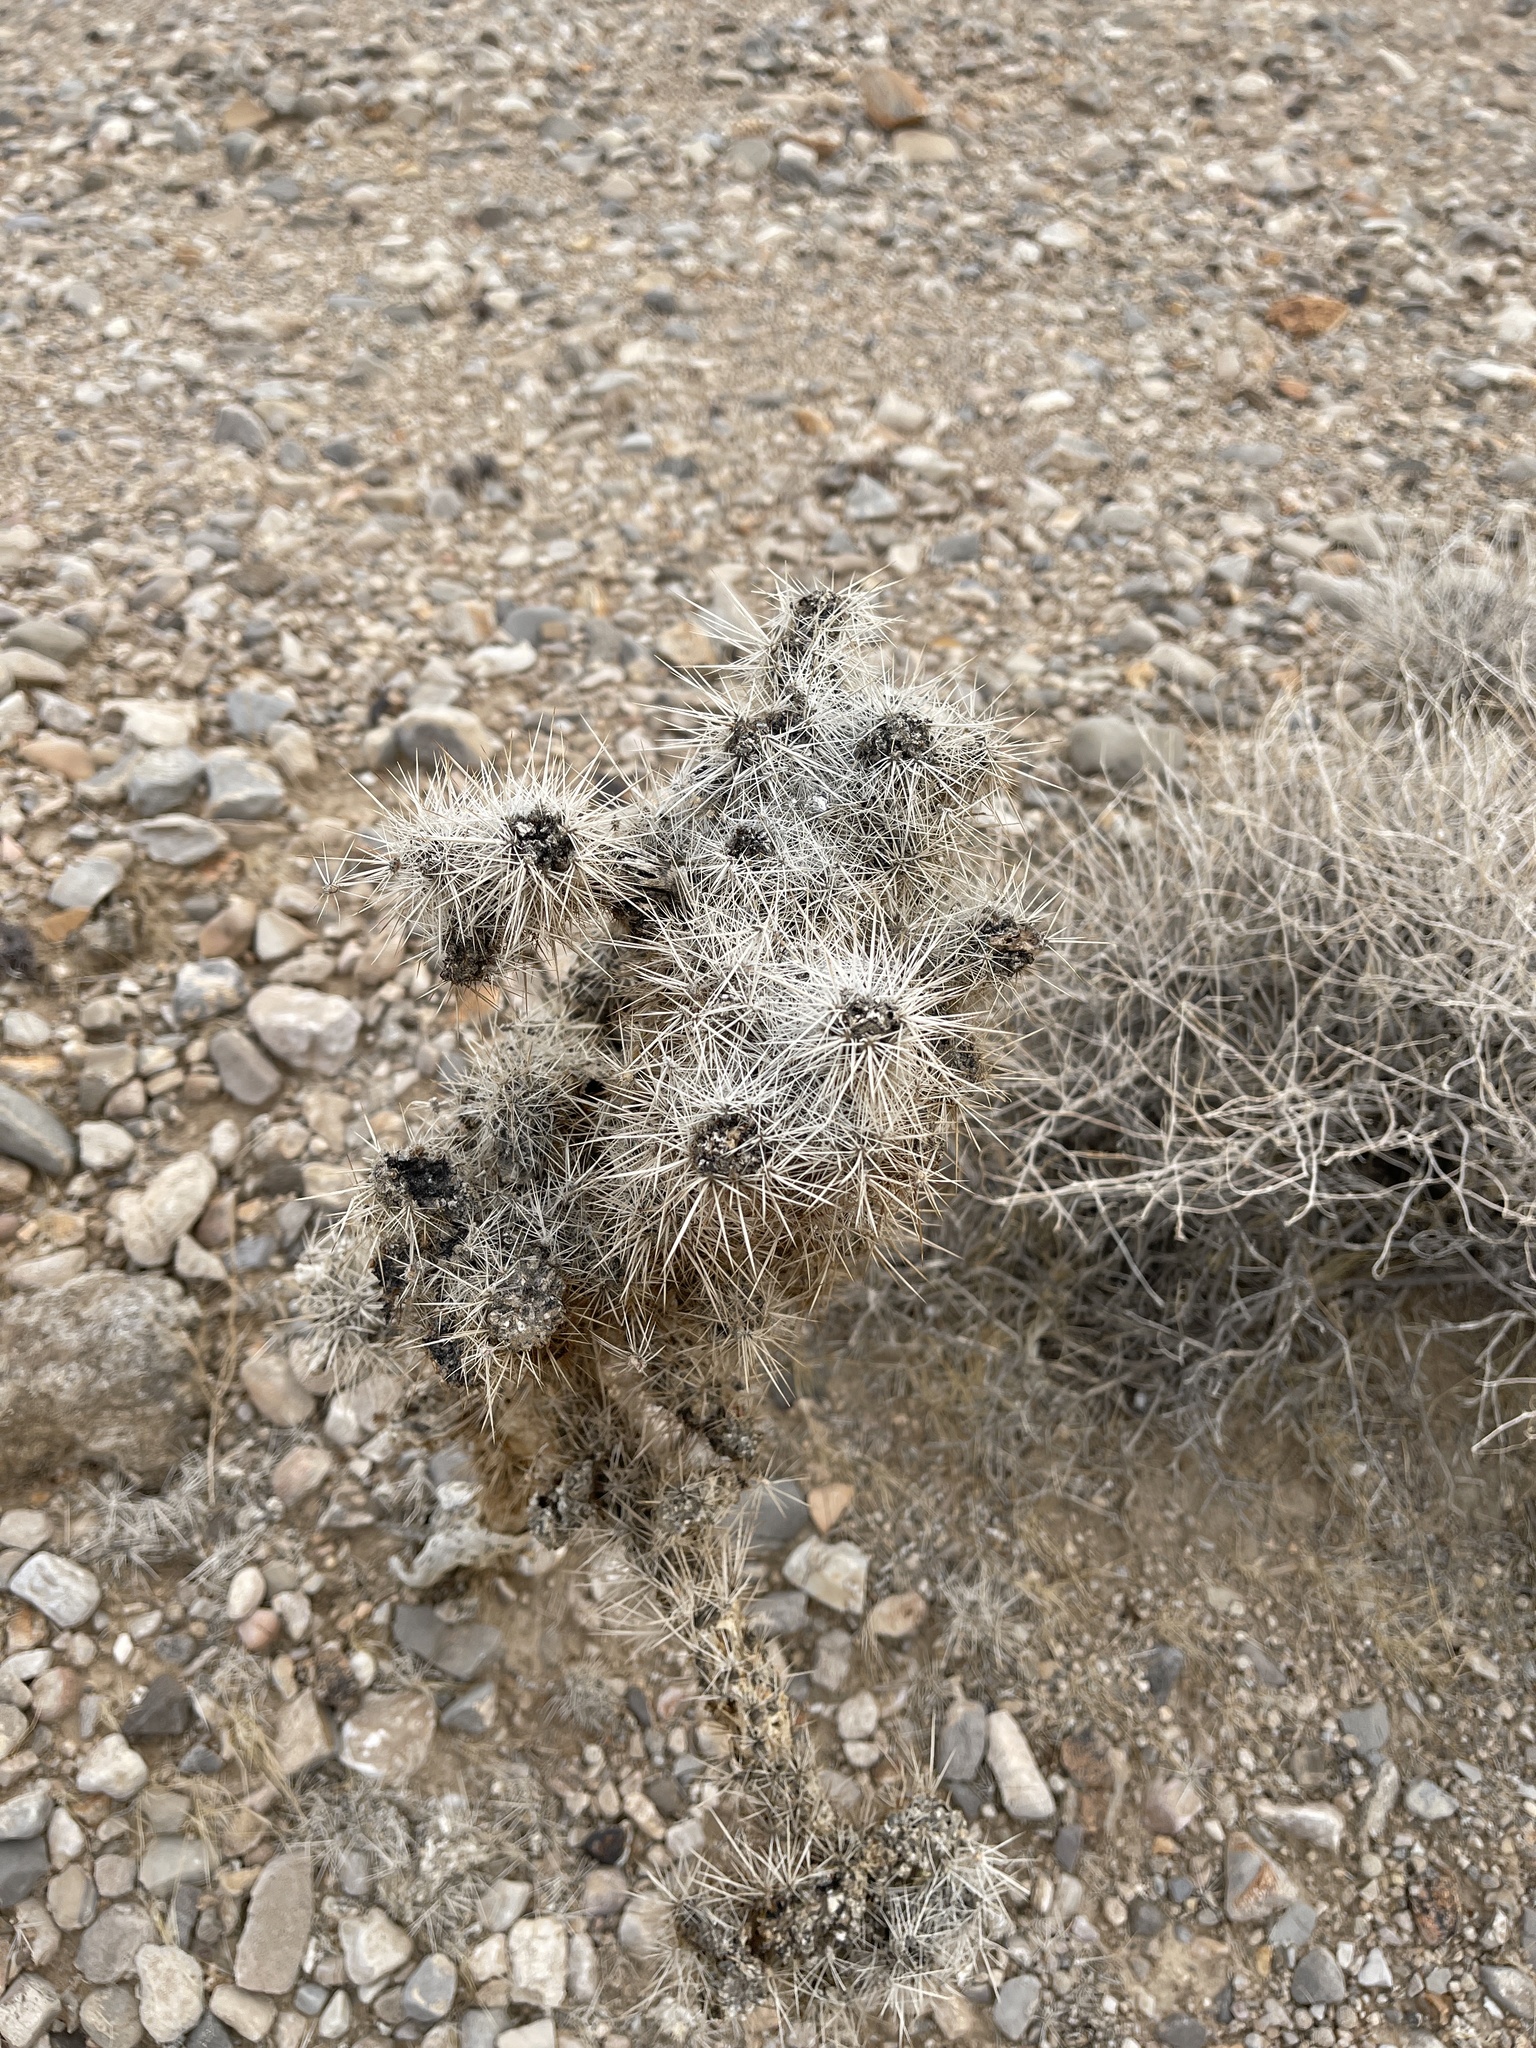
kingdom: Plantae
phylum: Tracheophyta
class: Magnoliopsida
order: Caryophyllales
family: Cactaceae
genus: Cylindropuntia
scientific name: Cylindropuntia echinocarpa
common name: Ground cholla
